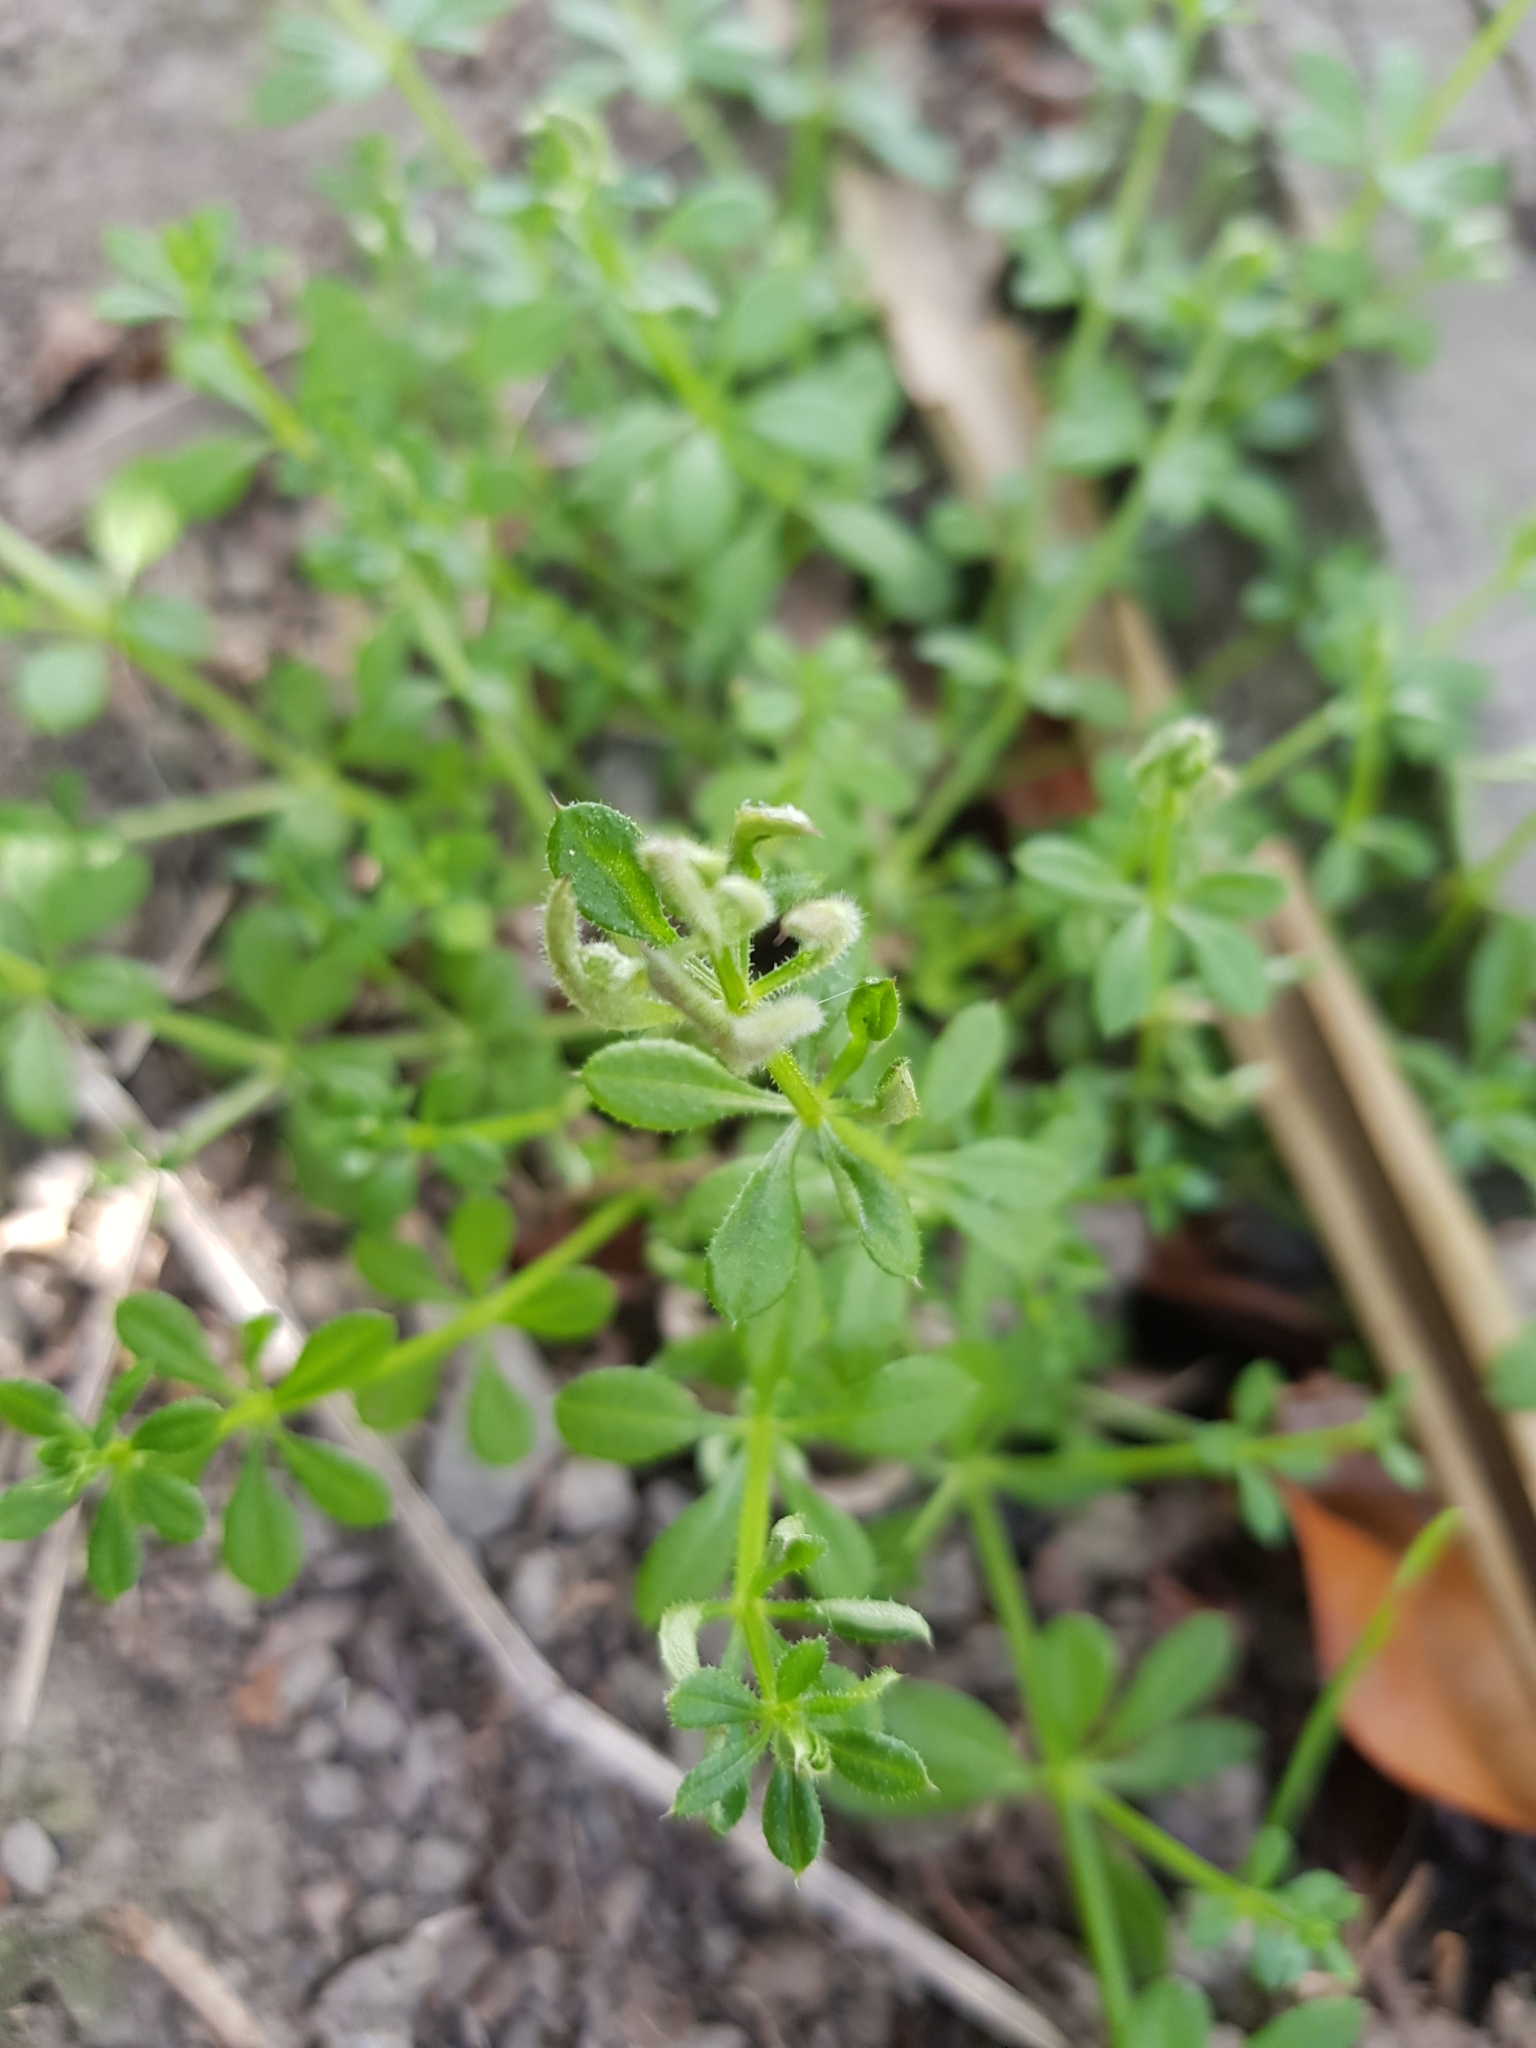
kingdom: Plantae
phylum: Tracheophyta
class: Magnoliopsida
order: Gentianales
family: Rubiaceae
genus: Galium
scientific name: Galium aparine
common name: Cleavers
